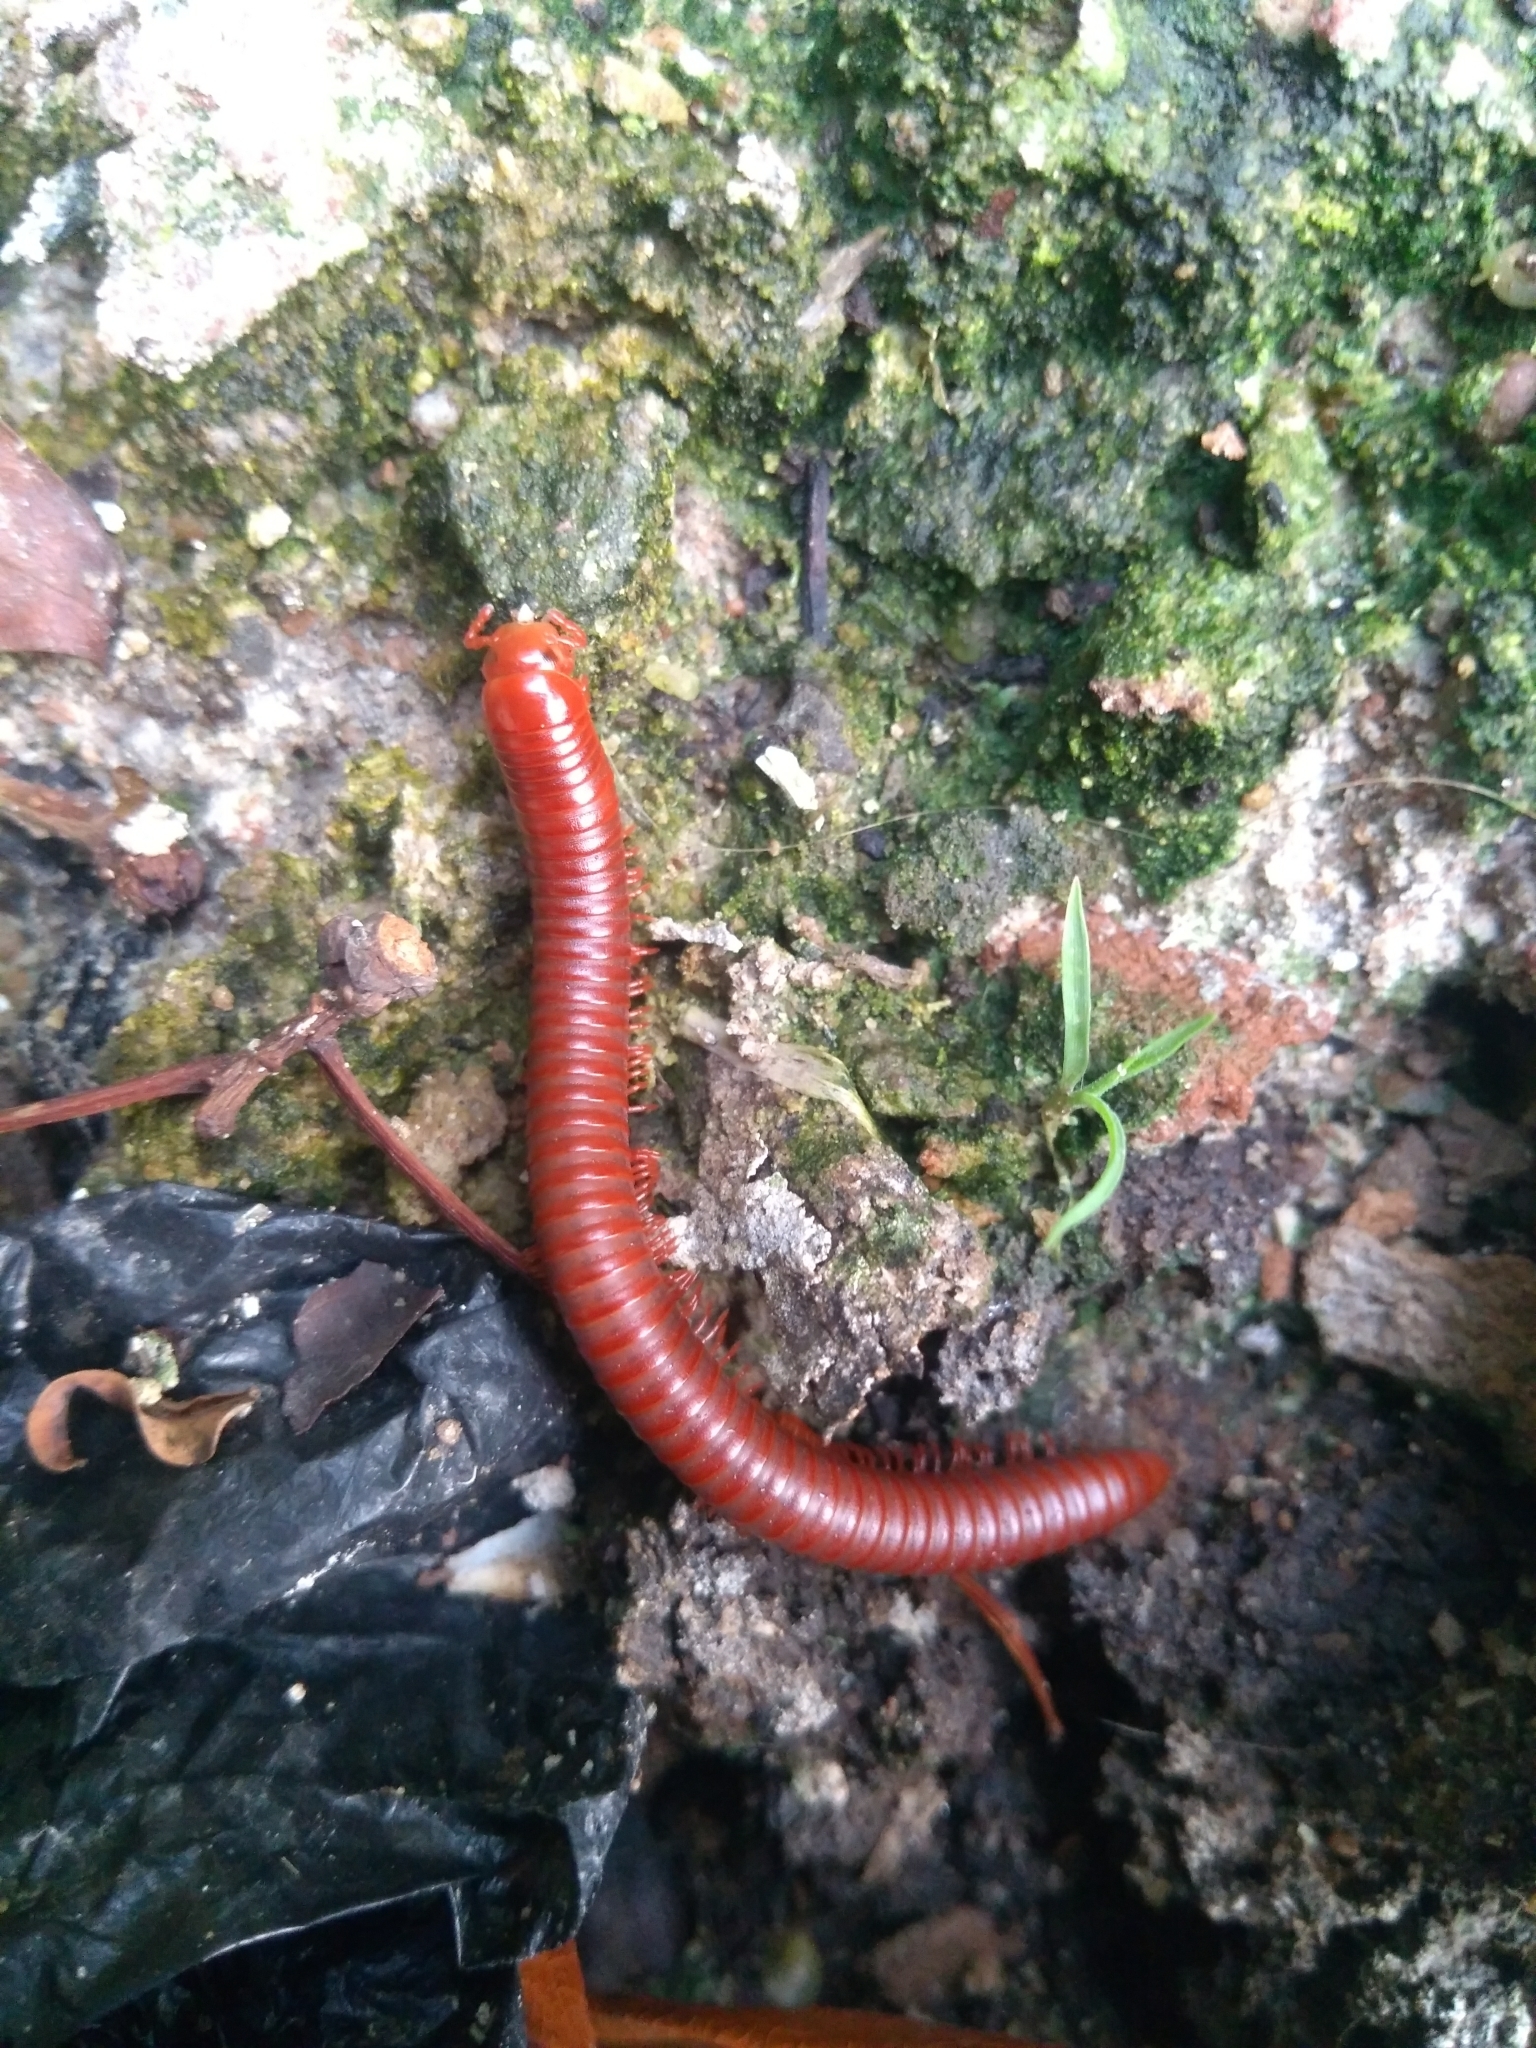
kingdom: Animalia
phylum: Arthropoda
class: Diplopoda
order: Spirobolida
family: Pachybolidae
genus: Trigoniulus
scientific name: Trigoniulus corallinus
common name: Millipede
